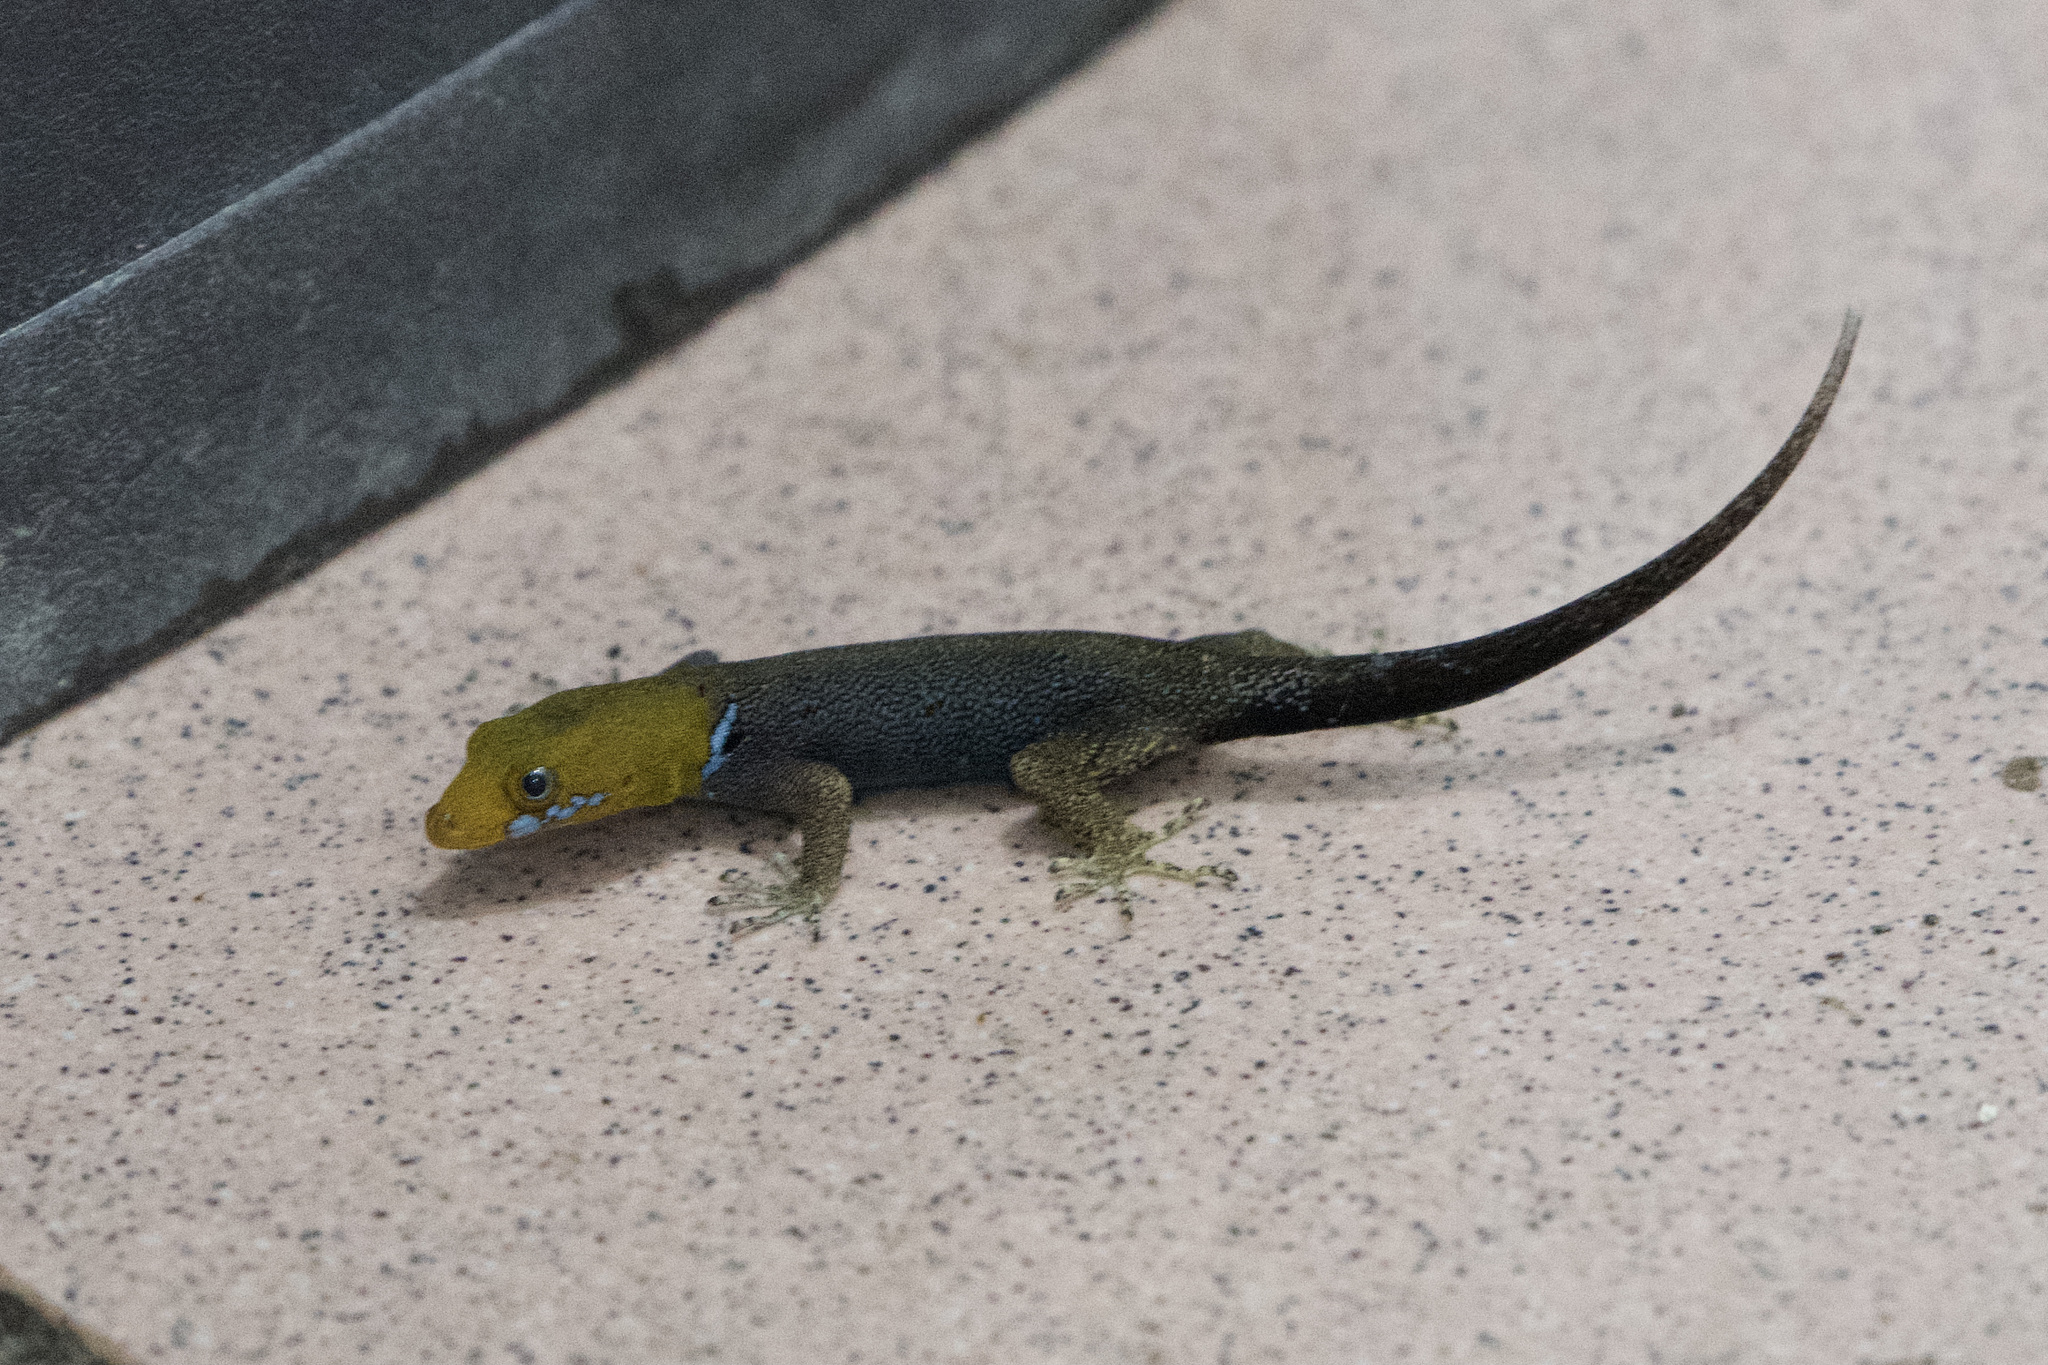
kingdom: Animalia
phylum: Chordata
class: Squamata
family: Sphaerodactylidae
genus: Gonatodes
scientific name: Gonatodes albogularis
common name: Yellow-headed gecko
